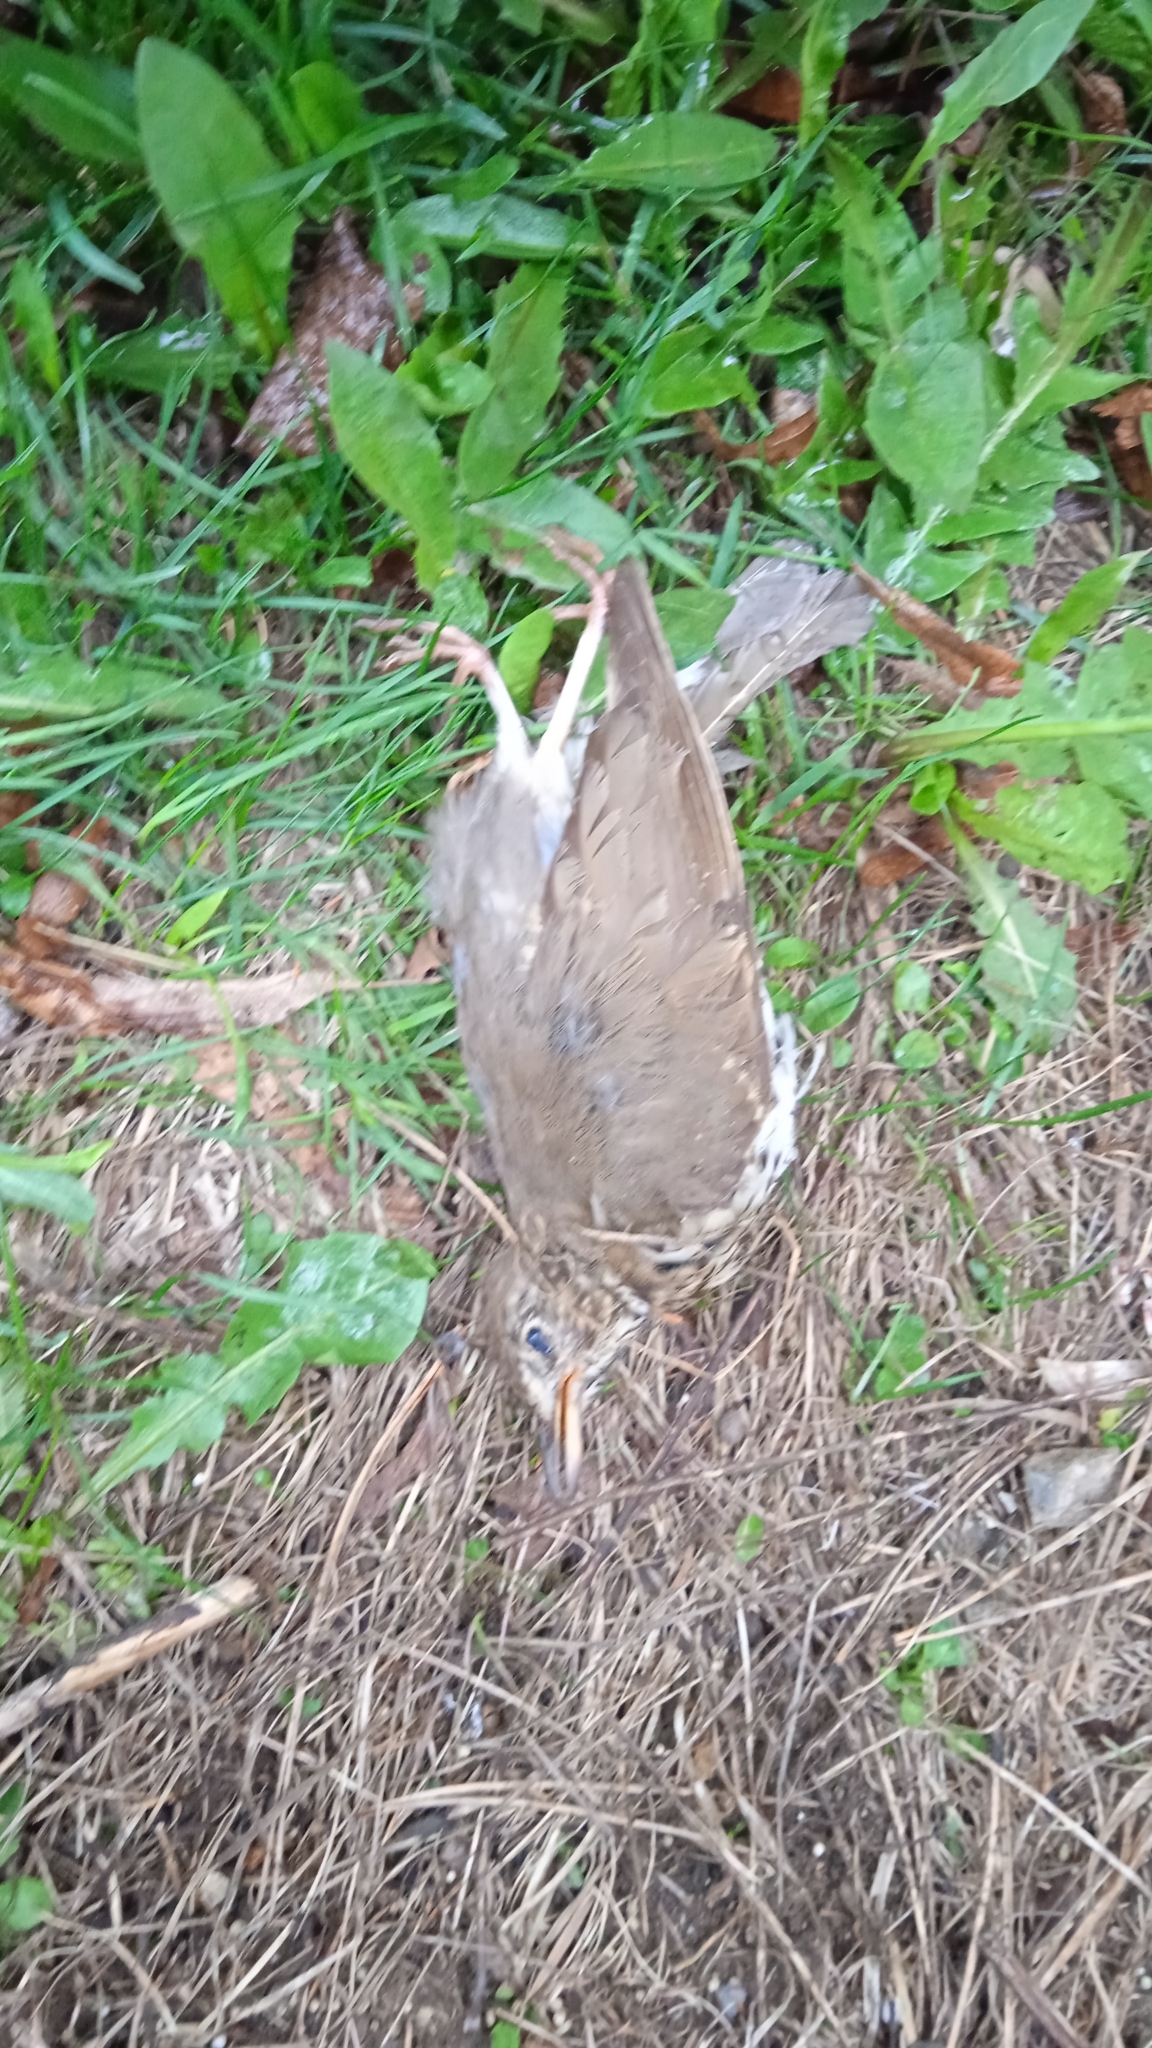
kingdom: Animalia
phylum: Chordata
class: Aves
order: Passeriformes
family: Turdidae
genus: Turdus
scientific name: Turdus philomelos
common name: Song thrush
